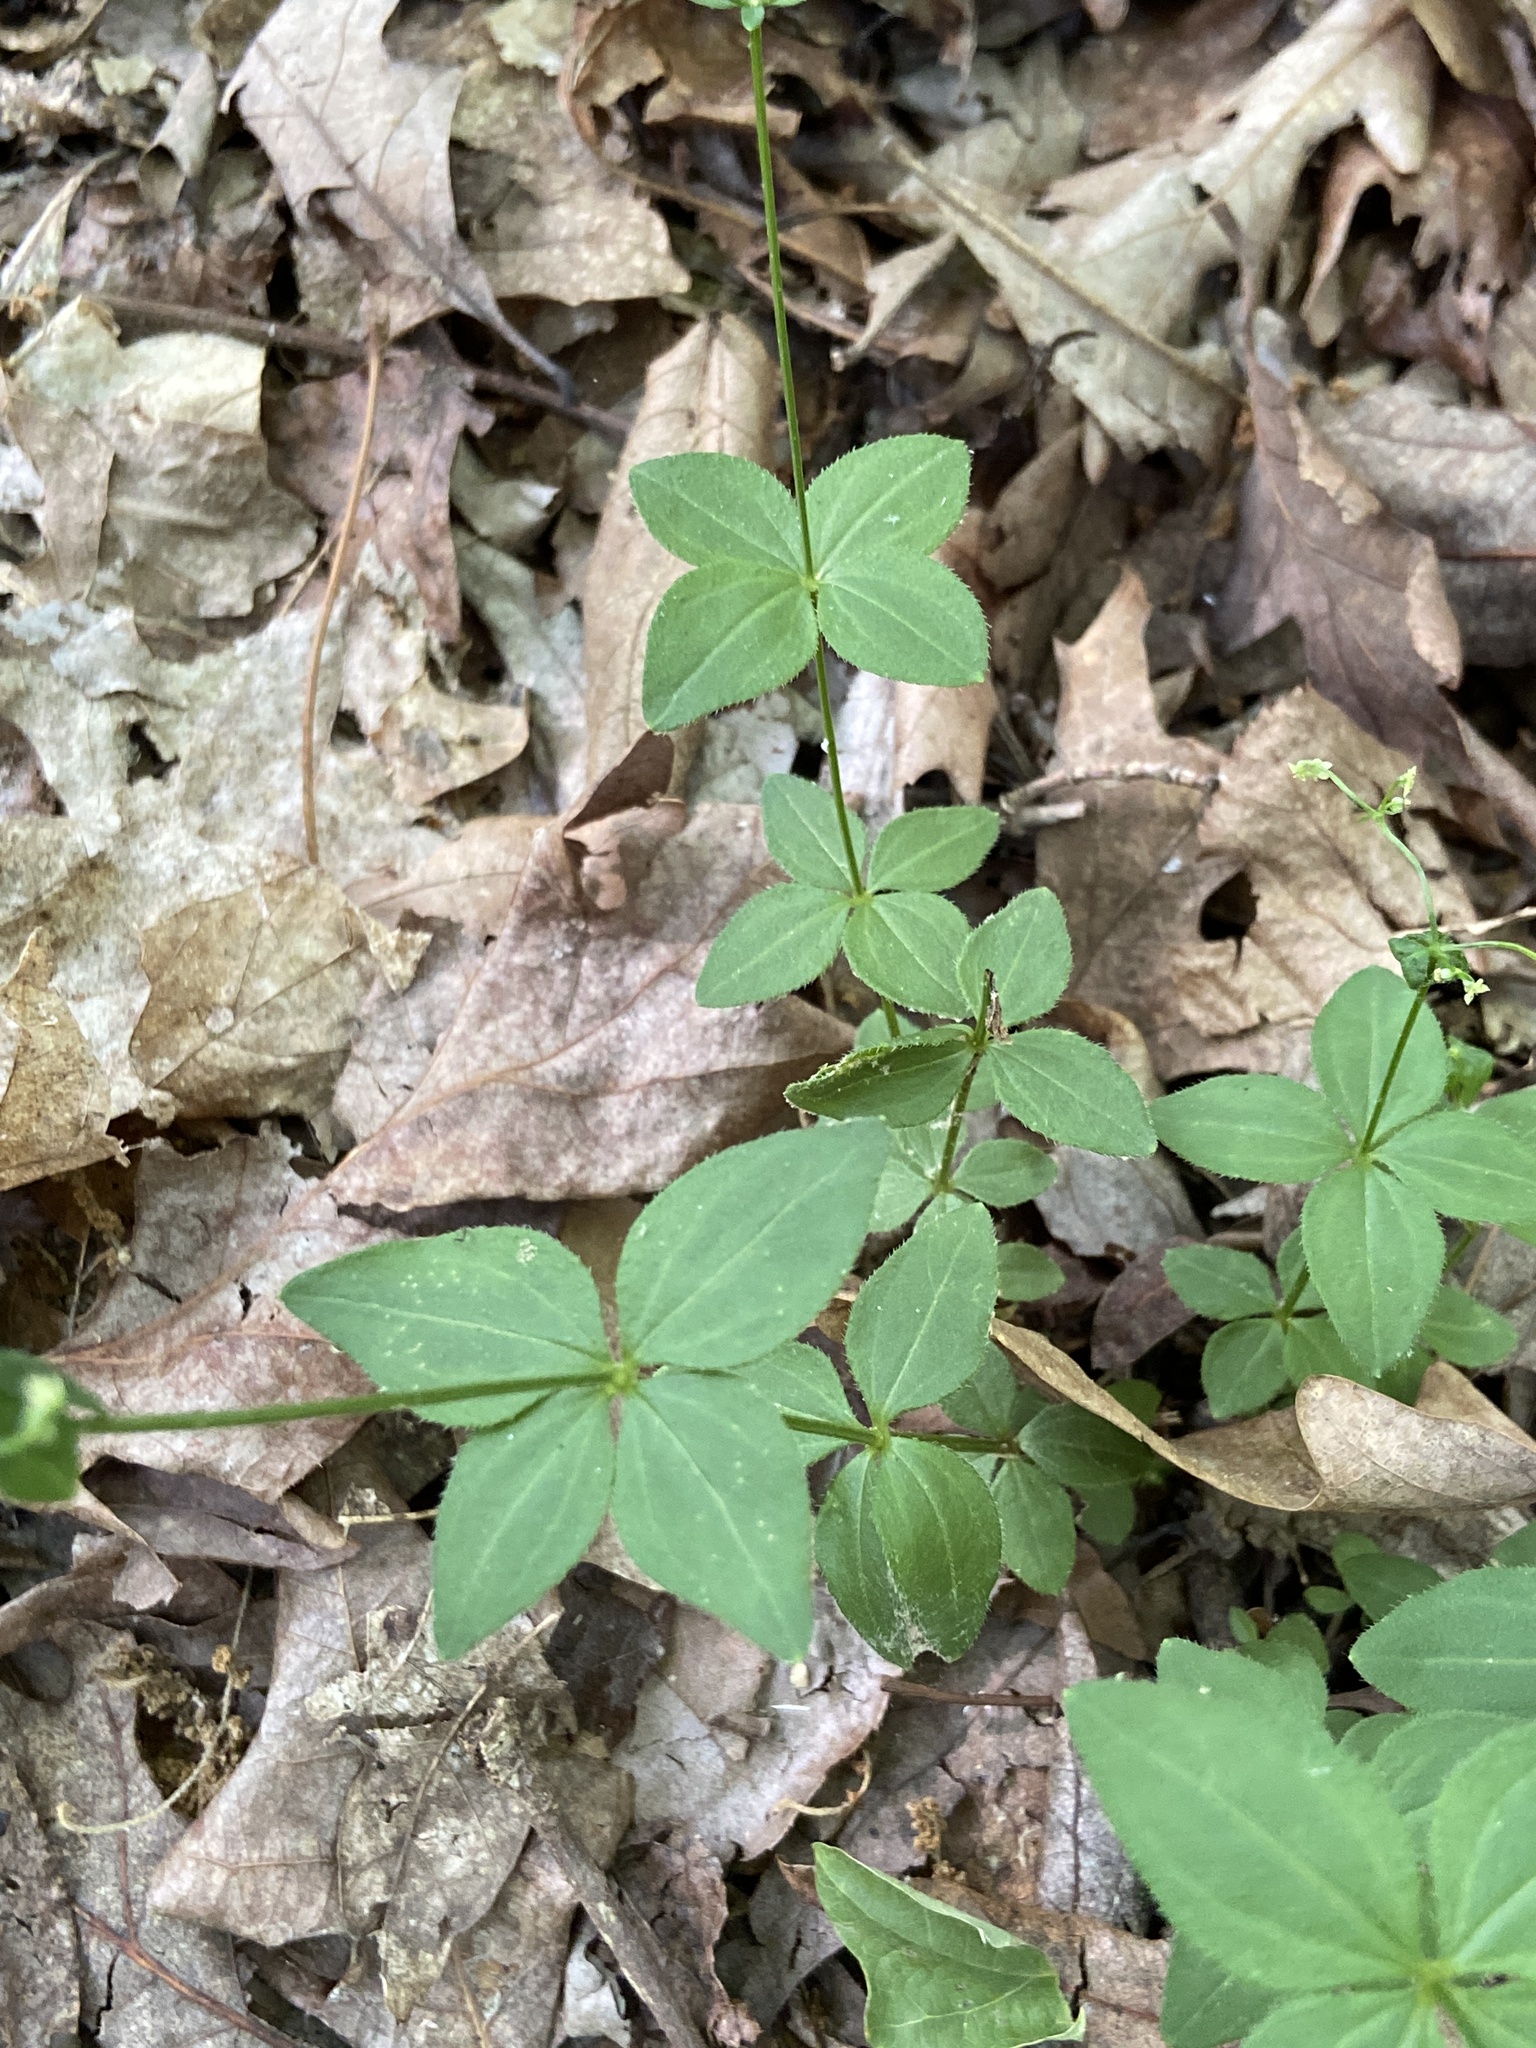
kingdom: Plantae
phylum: Tracheophyta
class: Magnoliopsida
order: Gentianales
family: Rubiaceae
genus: Galium
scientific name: Galium circaezans
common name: Forest bedstraw
